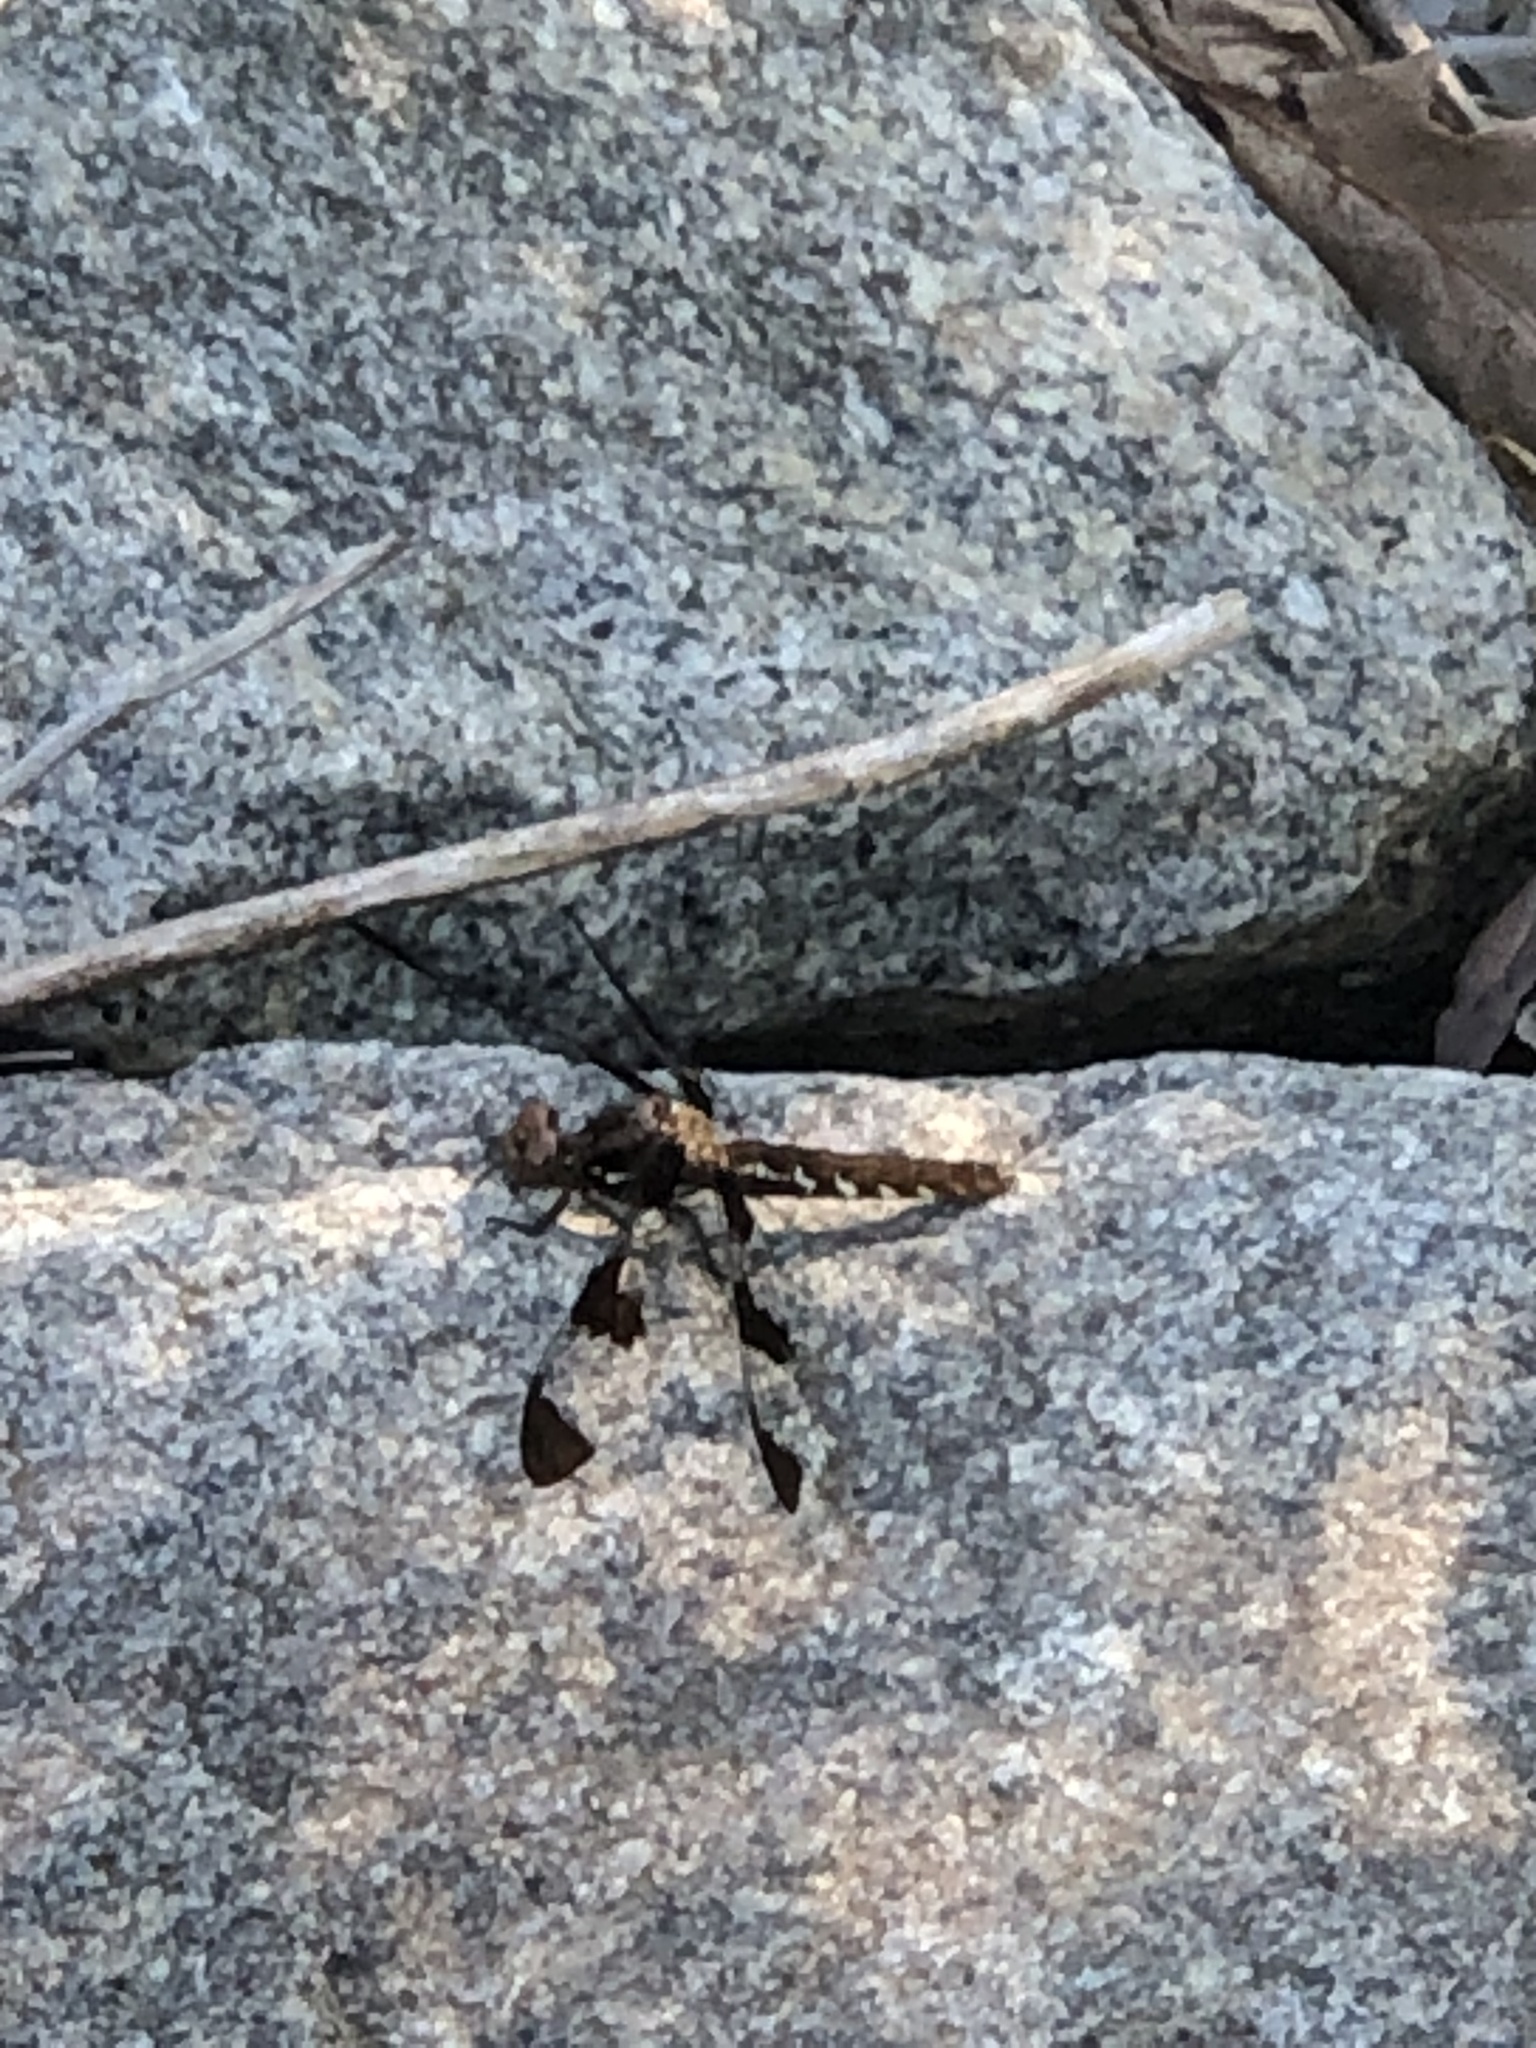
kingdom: Animalia
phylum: Arthropoda
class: Insecta
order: Odonata
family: Libellulidae
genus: Plathemis
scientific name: Plathemis lydia
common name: Common whitetail
